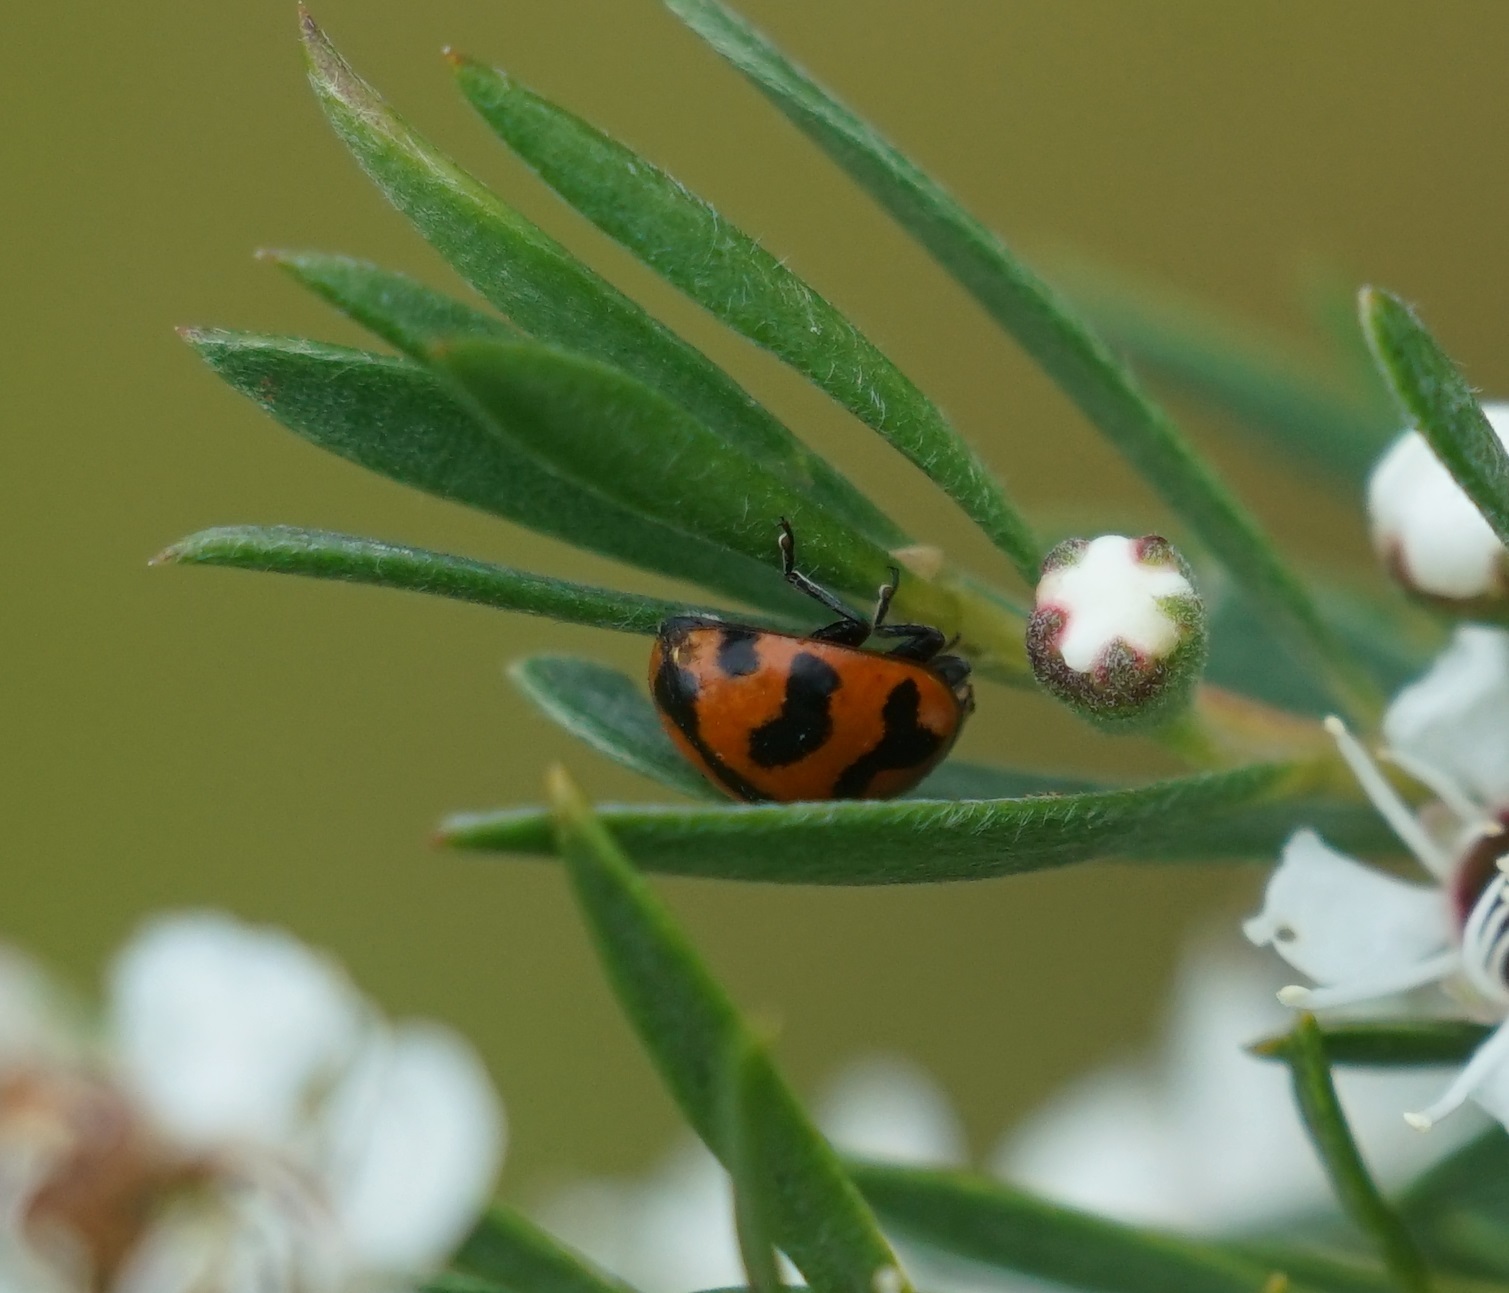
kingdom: Animalia
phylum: Arthropoda
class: Insecta
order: Coleoptera
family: Coccinellidae
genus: Coccinella
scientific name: Coccinella transversalis
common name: Transverse lady beetle
